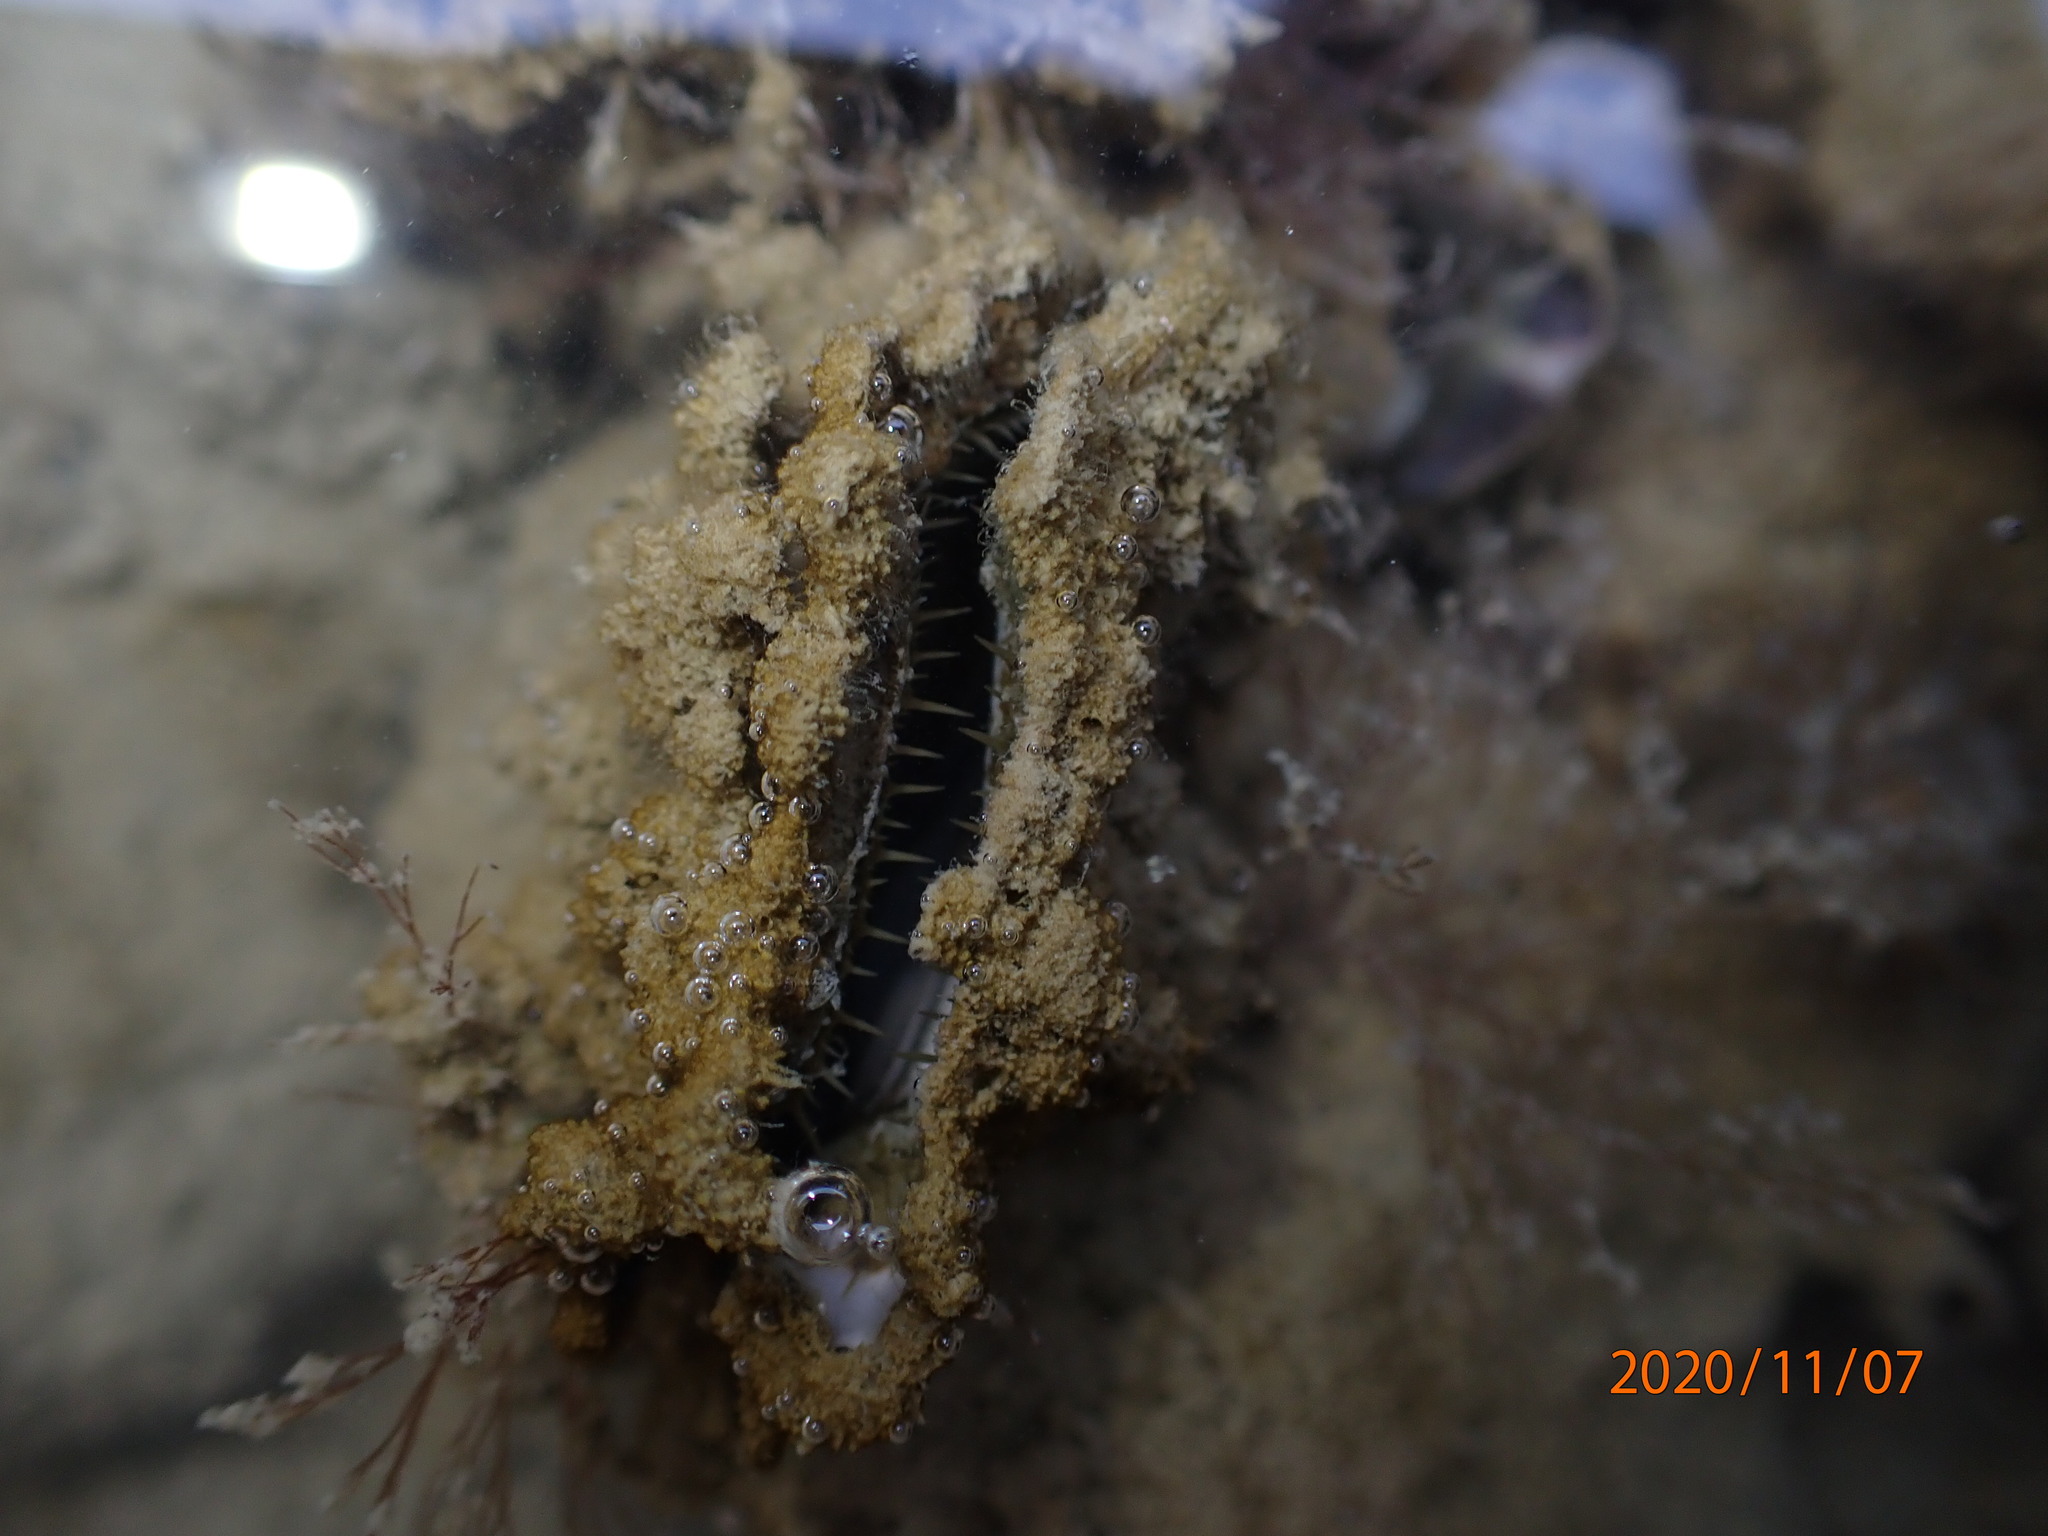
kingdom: Animalia
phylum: Mollusca
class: Bivalvia
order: Ostreida
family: Ostreidae
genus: Magallana
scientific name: Magallana gigas
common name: Pacific oyster
